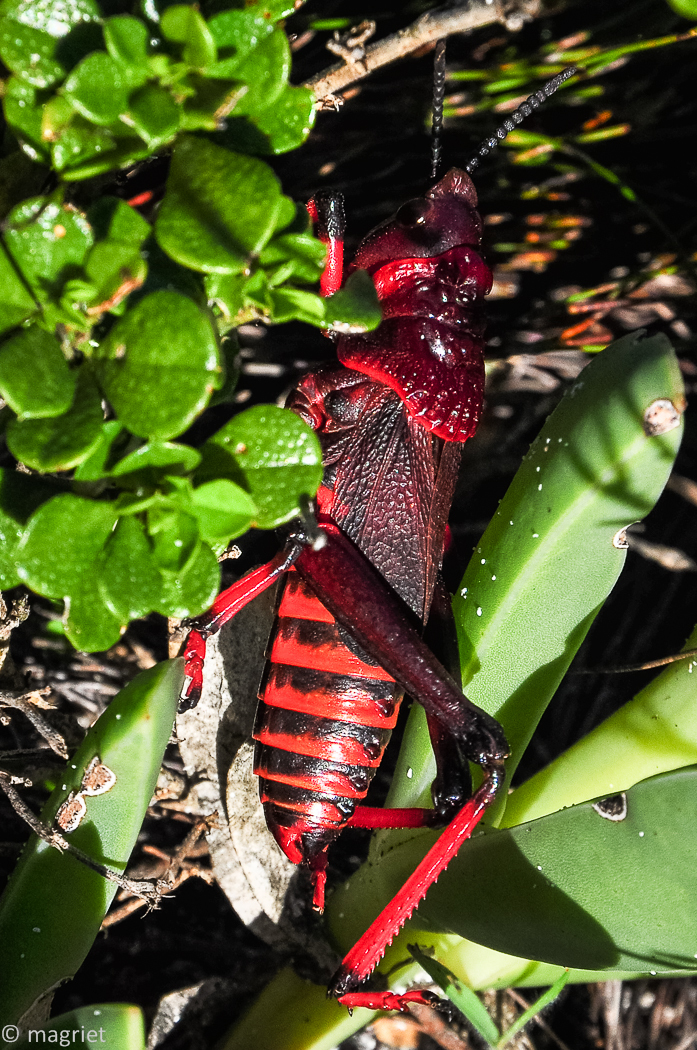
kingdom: Animalia
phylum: Arthropoda
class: Insecta
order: Orthoptera
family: Pyrgomorphidae
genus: Dictyophorus
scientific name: Dictyophorus spumans
